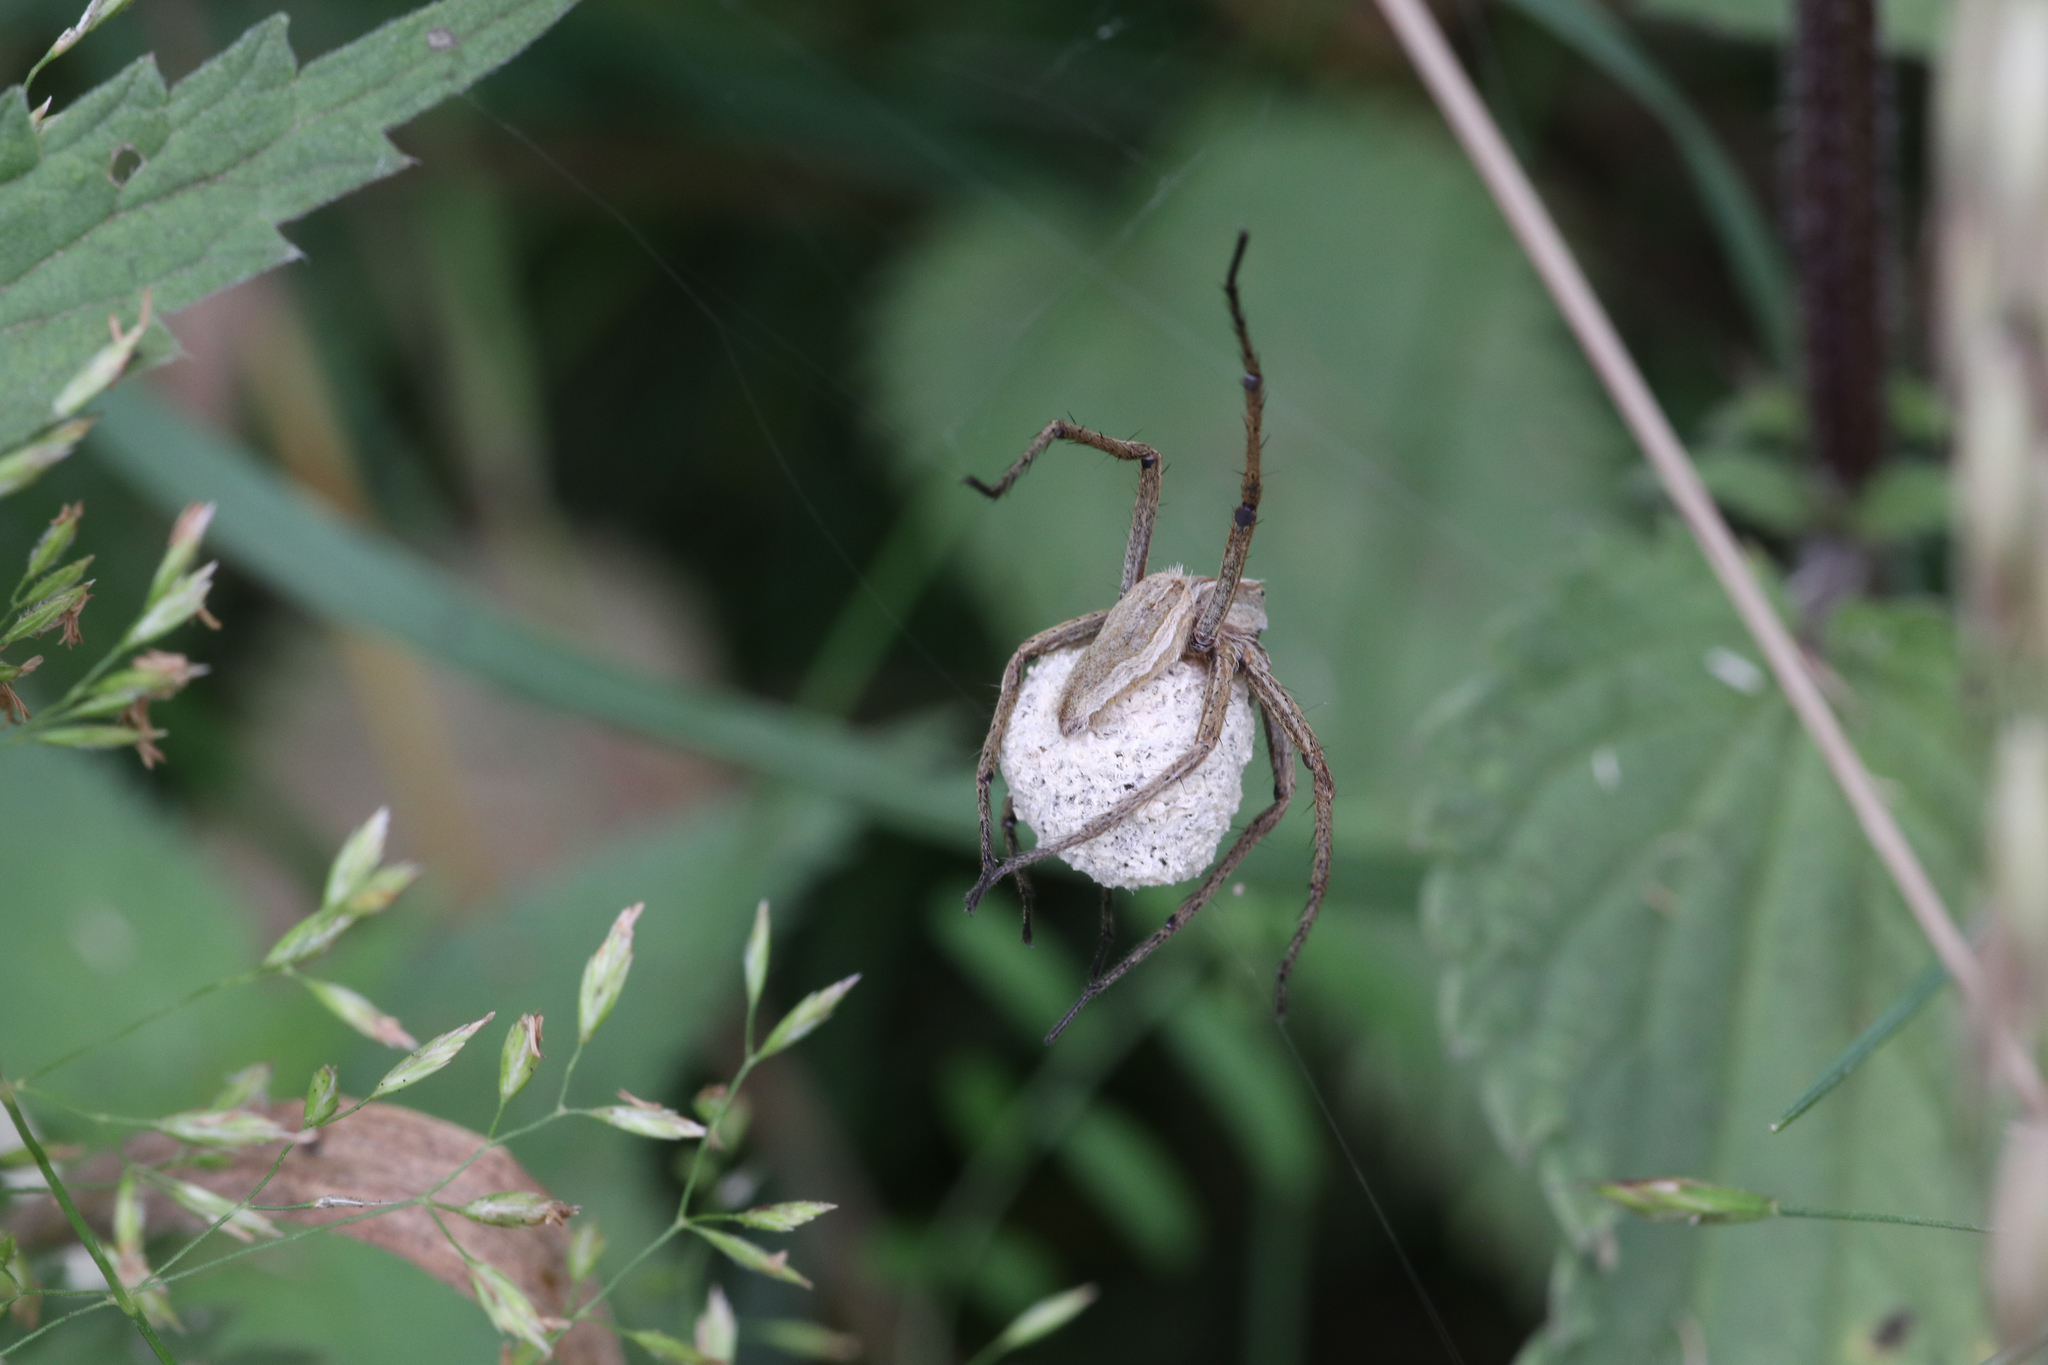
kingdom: Animalia
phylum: Arthropoda
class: Arachnida
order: Araneae
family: Pisauridae
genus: Pisaura
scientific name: Pisaura mirabilis
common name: Tent spider
